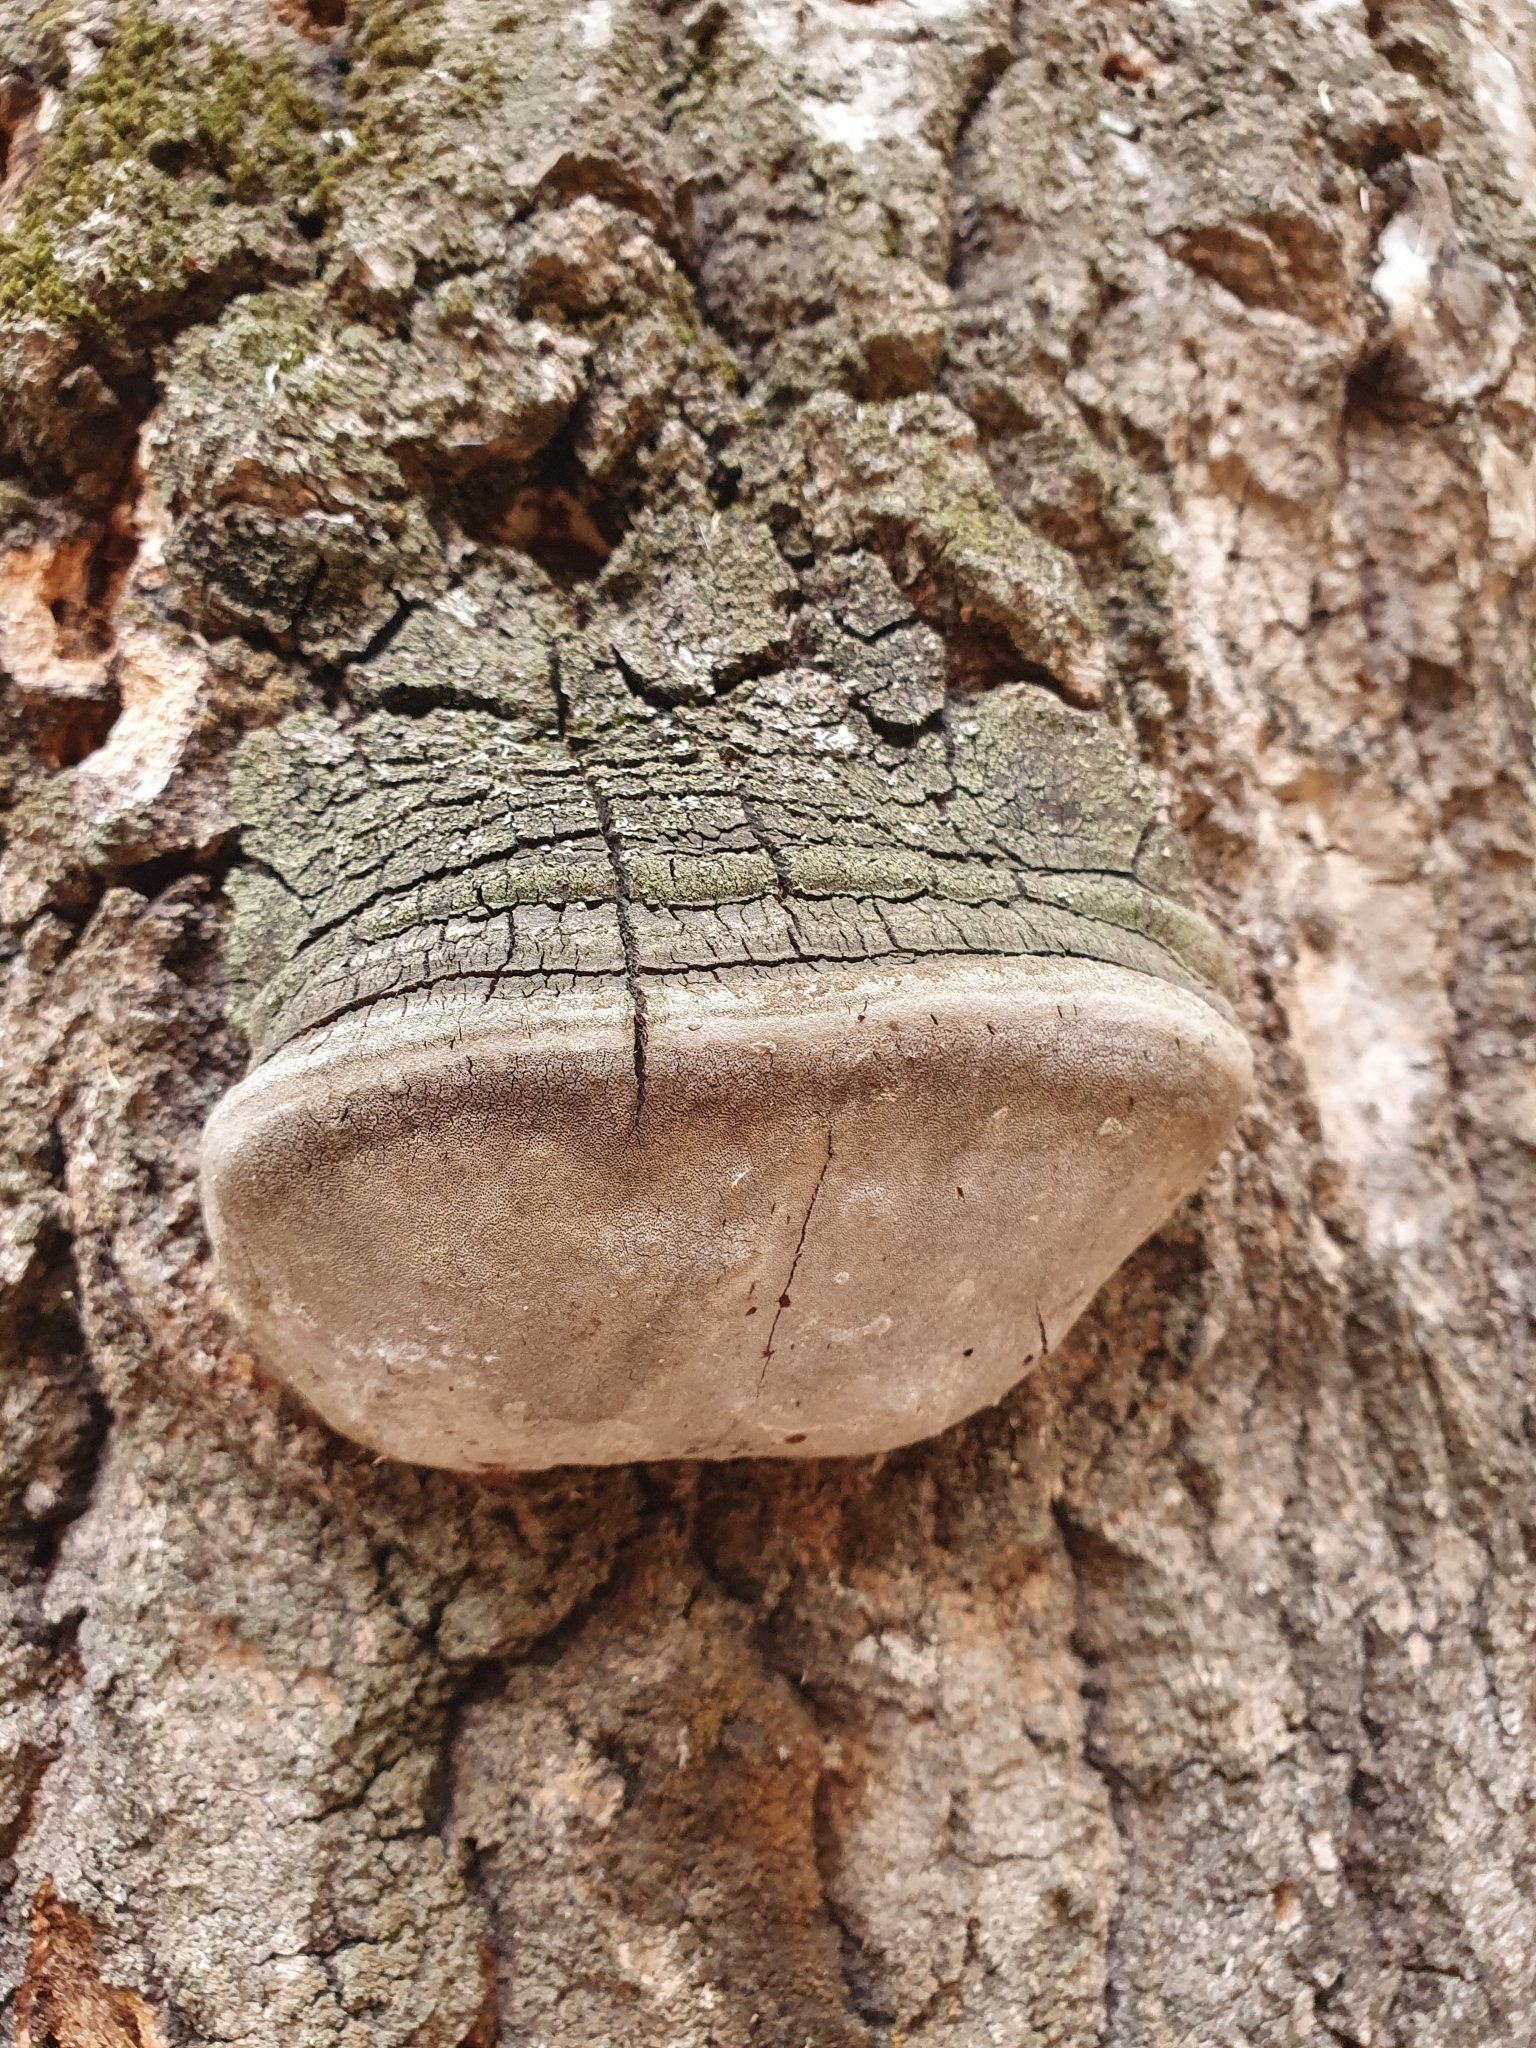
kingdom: Fungi
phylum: Basidiomycota
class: Agaricomycetes
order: Hymenochaetales
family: Hymenochaetaceae
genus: Phellinus
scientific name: Phellinus tremulae
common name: Aspen bracket
